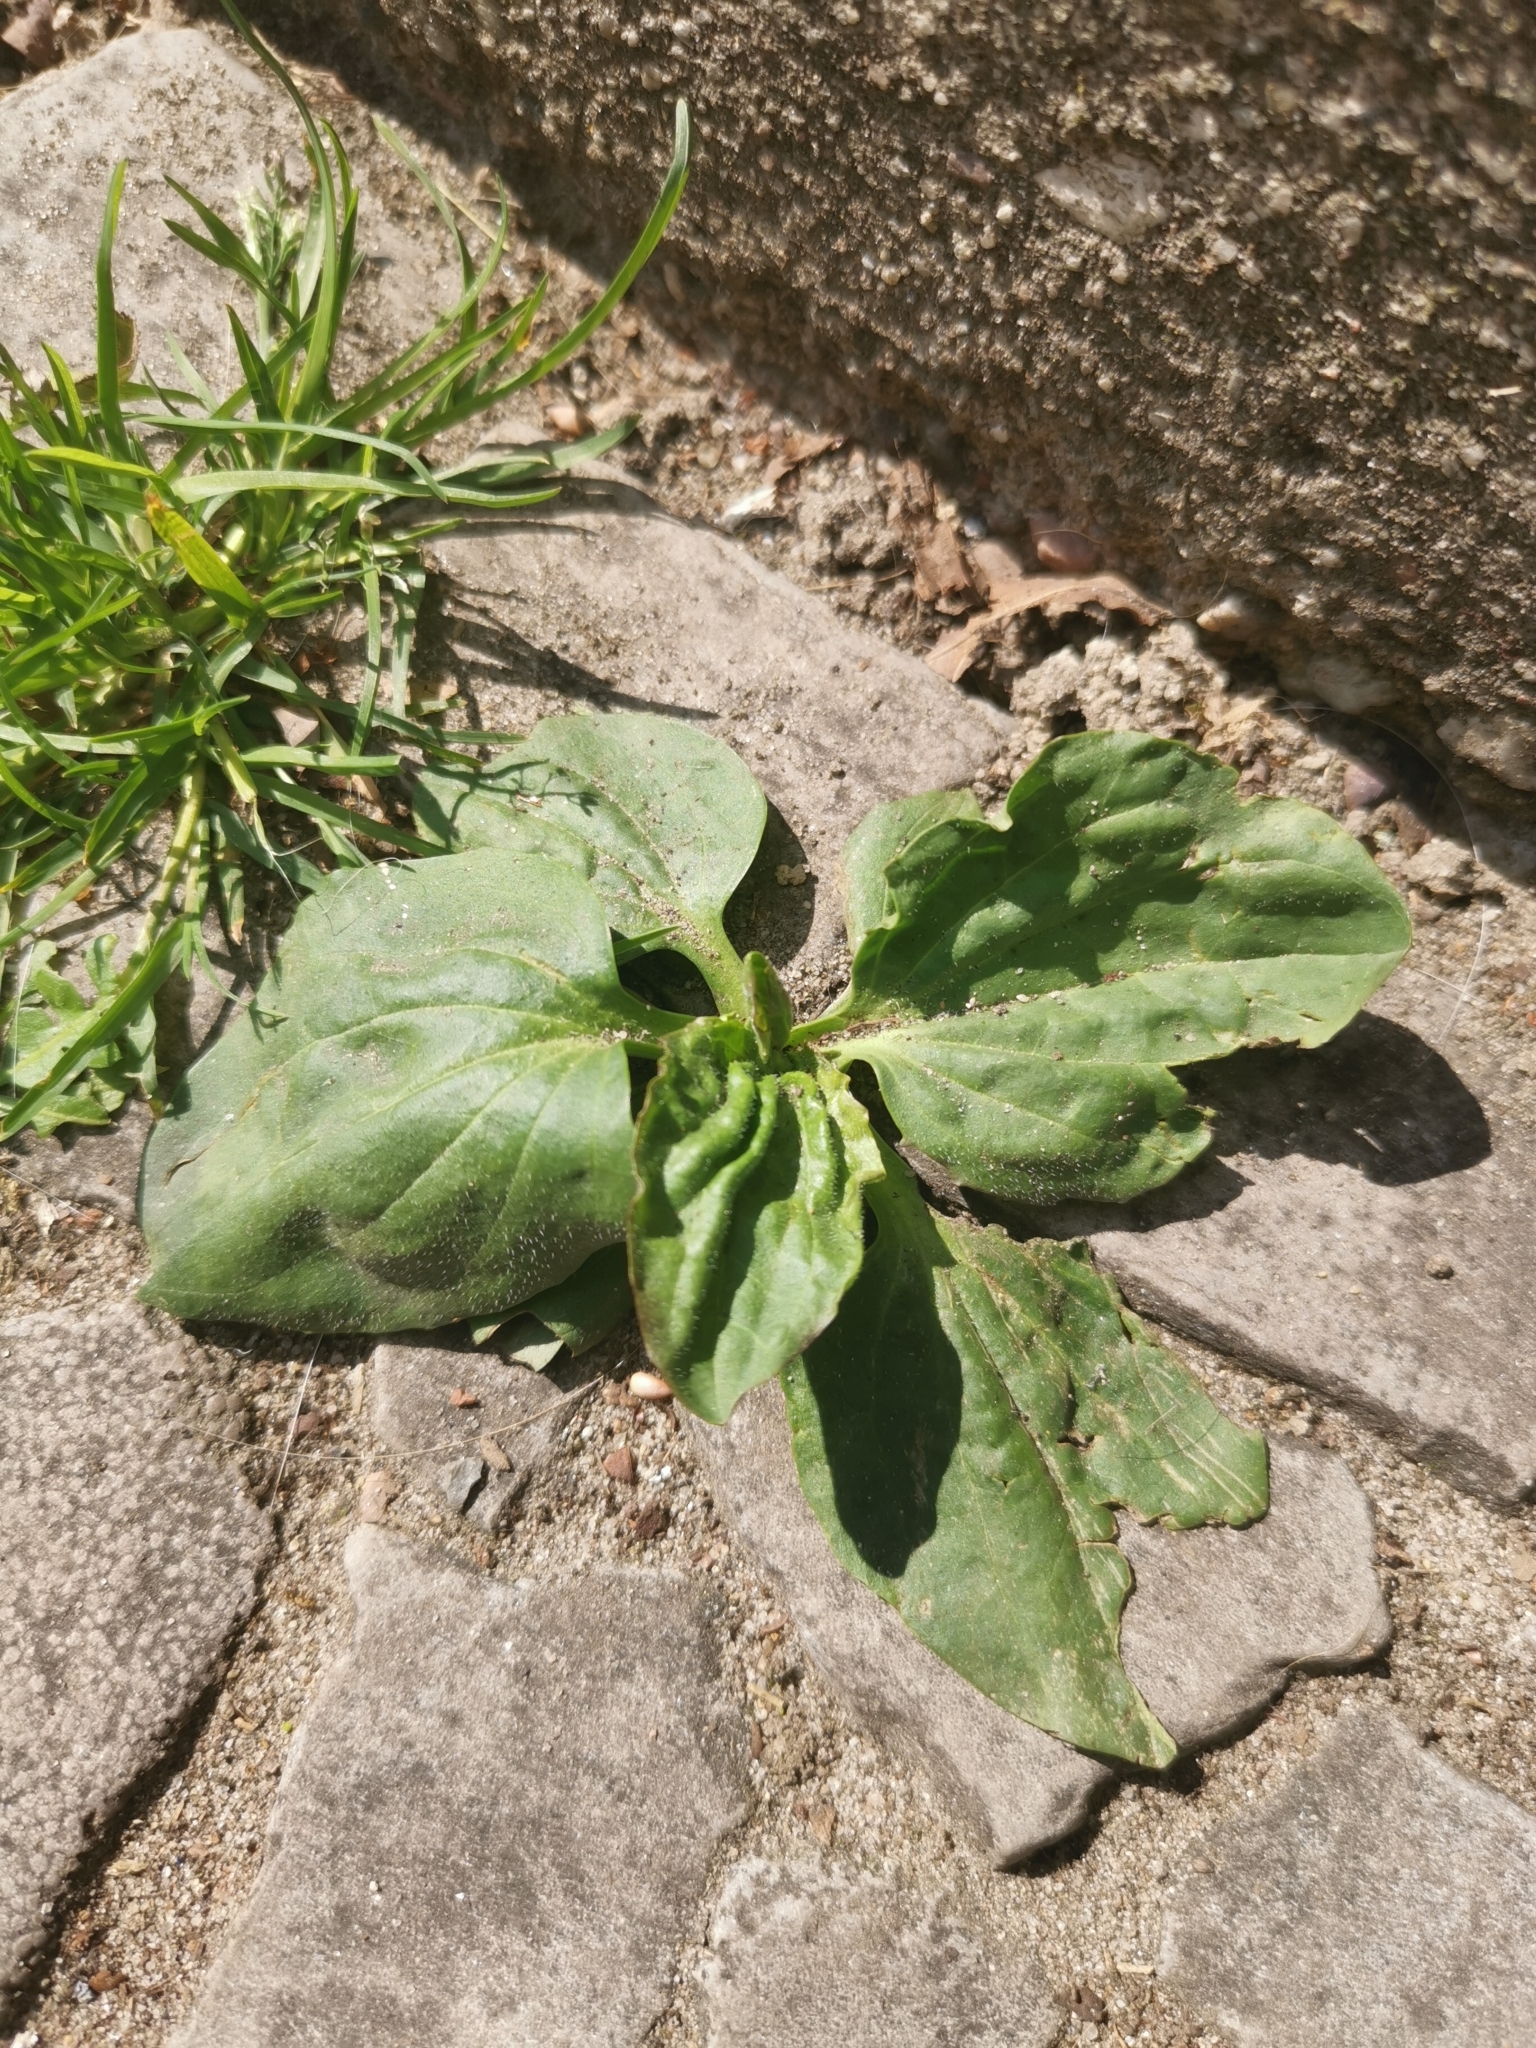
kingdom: Plantae
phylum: Tracheophyta
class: Magnoliopsida
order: Lamiales
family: Plantaginaceae
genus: Plantago
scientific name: Plantago major
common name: Common plantain
